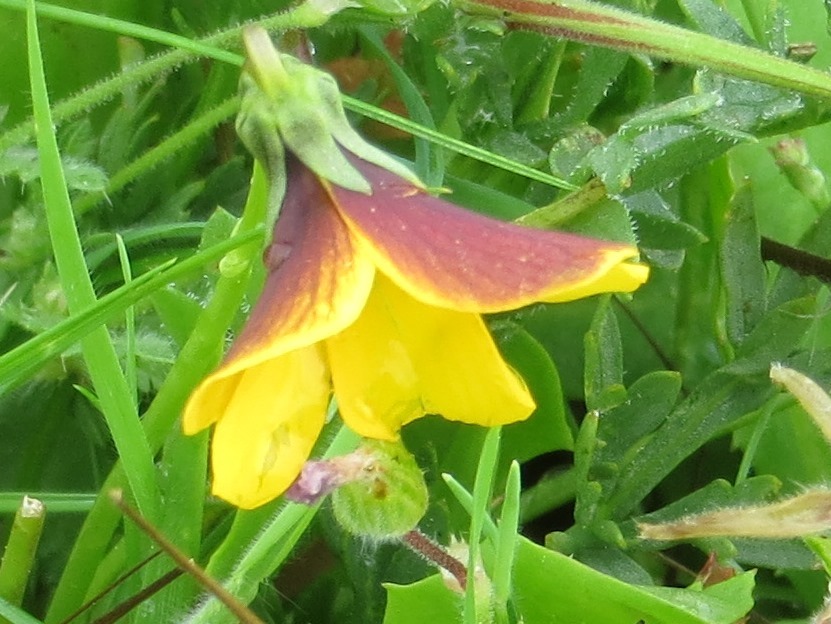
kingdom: Plantae
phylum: Tracheophyta
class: Magnoliopsida
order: Malpighiales
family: Violaceae
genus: Viola
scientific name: Viola douglasii
